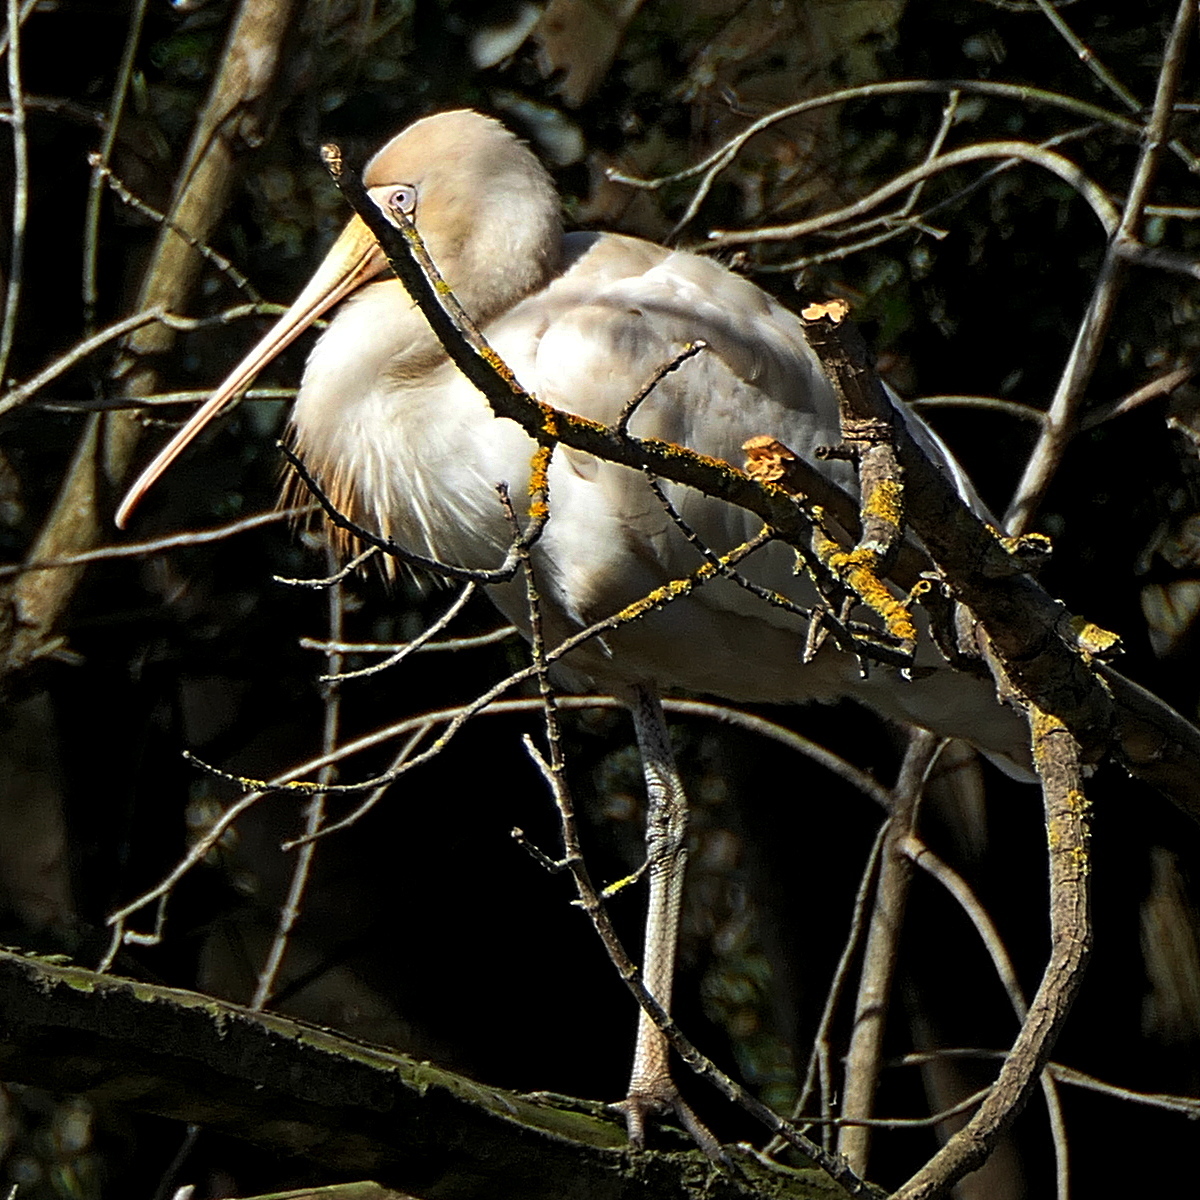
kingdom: Animalia
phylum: Chordata
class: Aves
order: Pelecaniformes
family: Threskiornithidae
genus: Platalea
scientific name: Platalea flavipes
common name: Yellow-billed spoonbill
